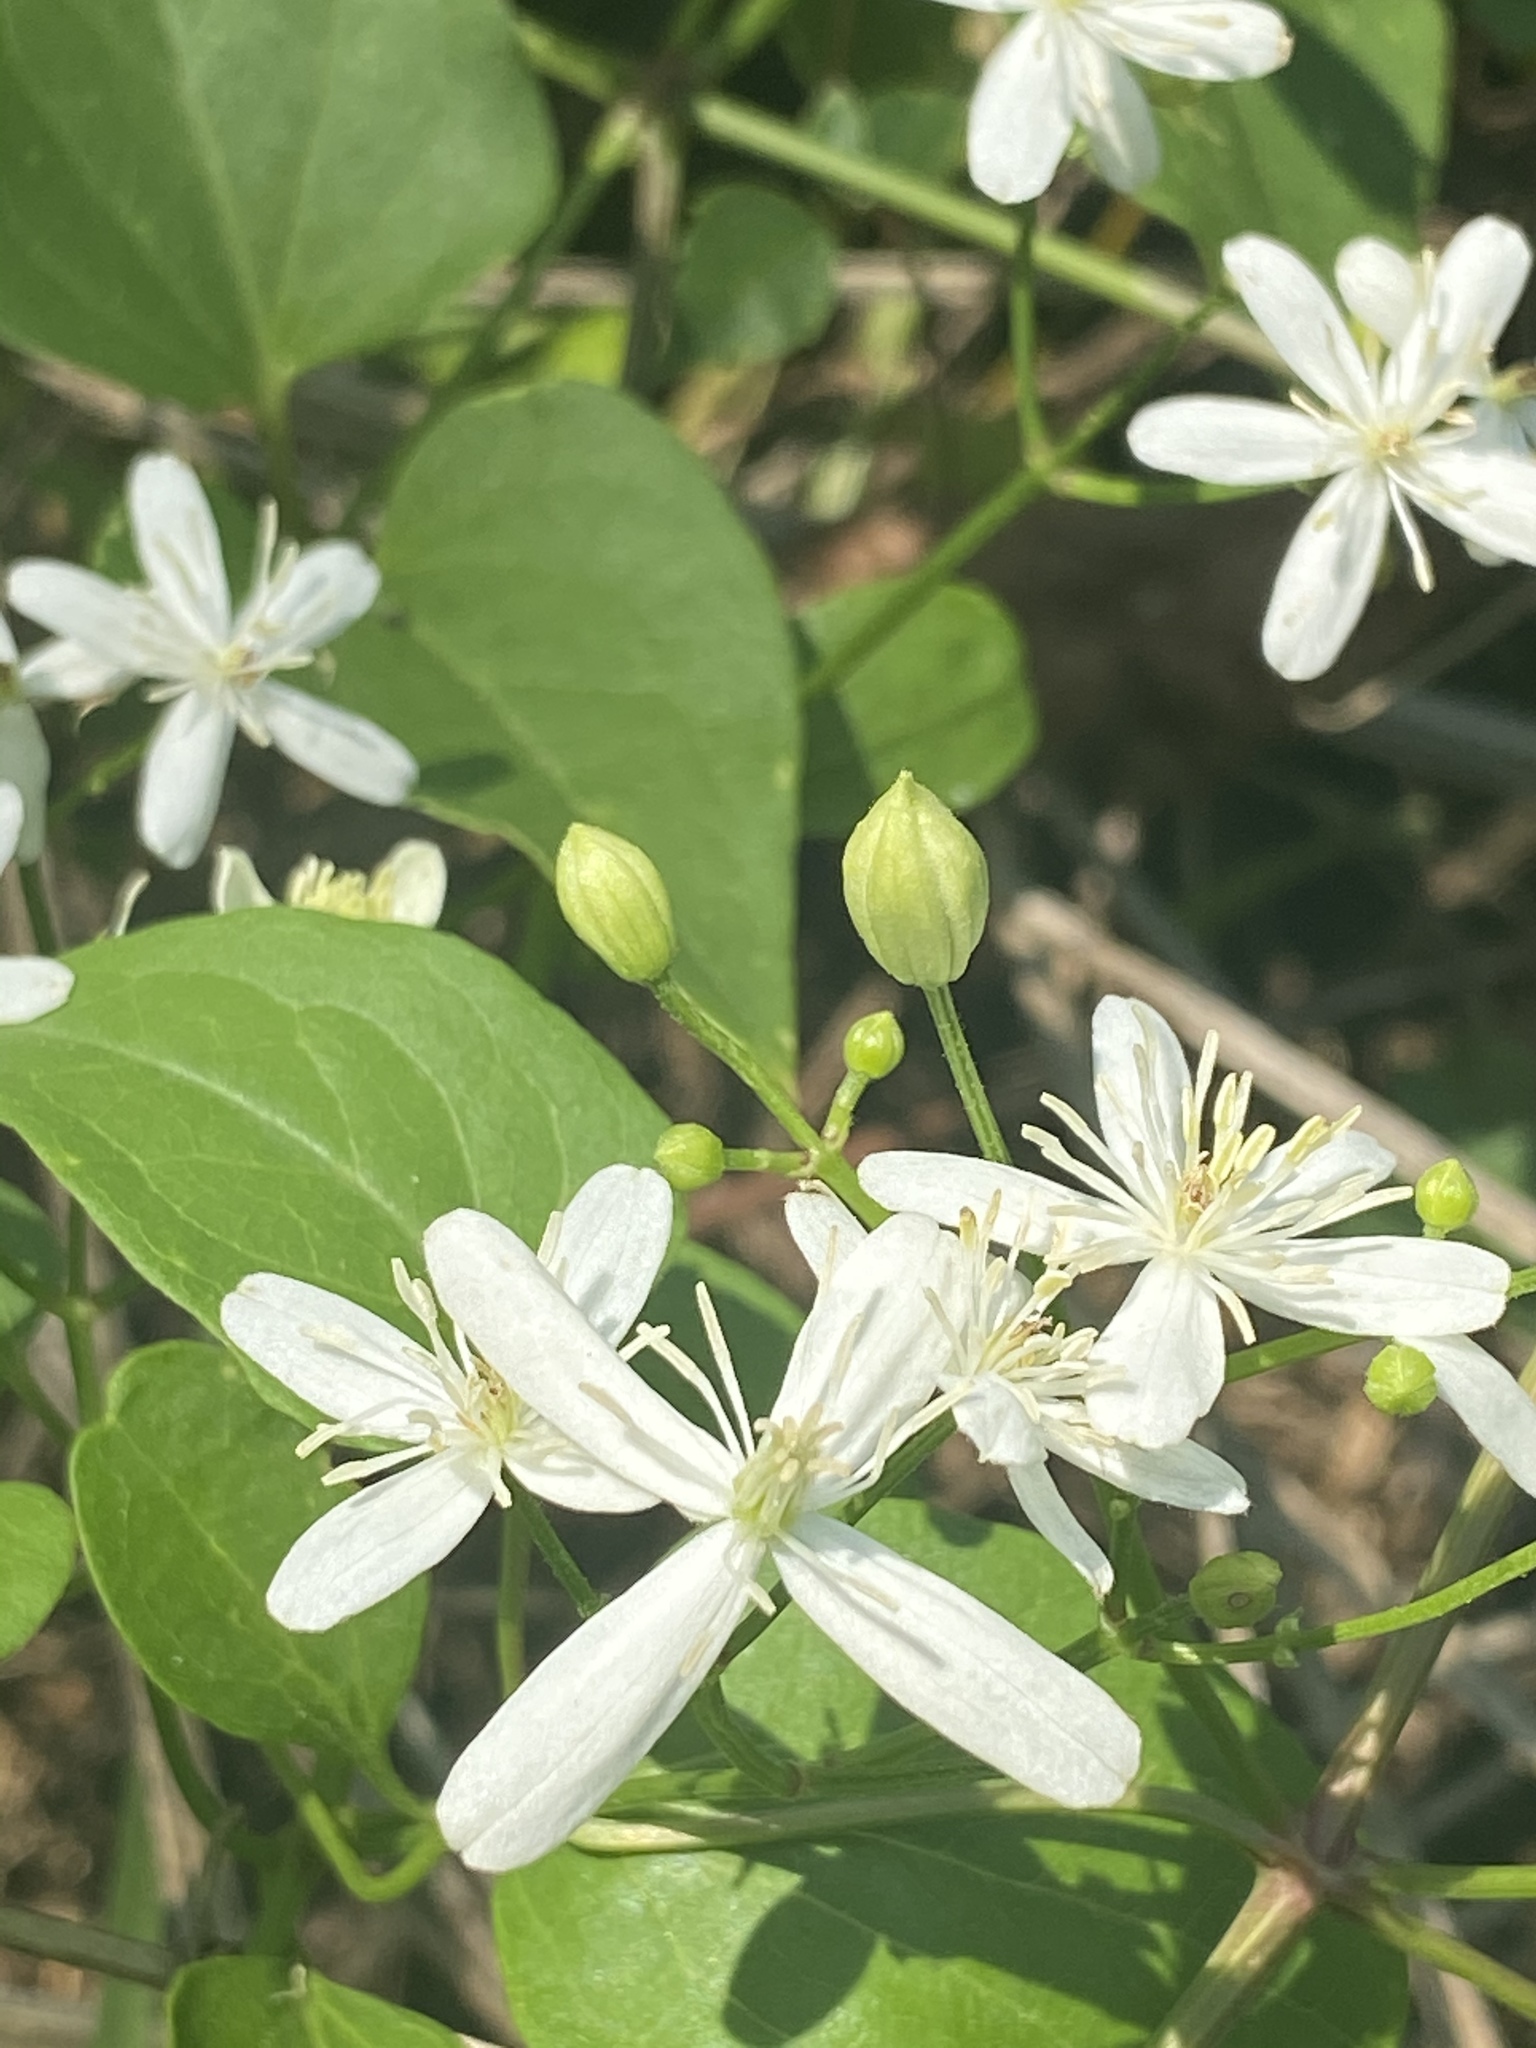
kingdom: Plantae
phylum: Tracheophyta
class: Magnoliopsida
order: Ranunculales
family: Ranunculaceae
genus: Clematis
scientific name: Clematis terniflora
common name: Sweet autumn clematis
